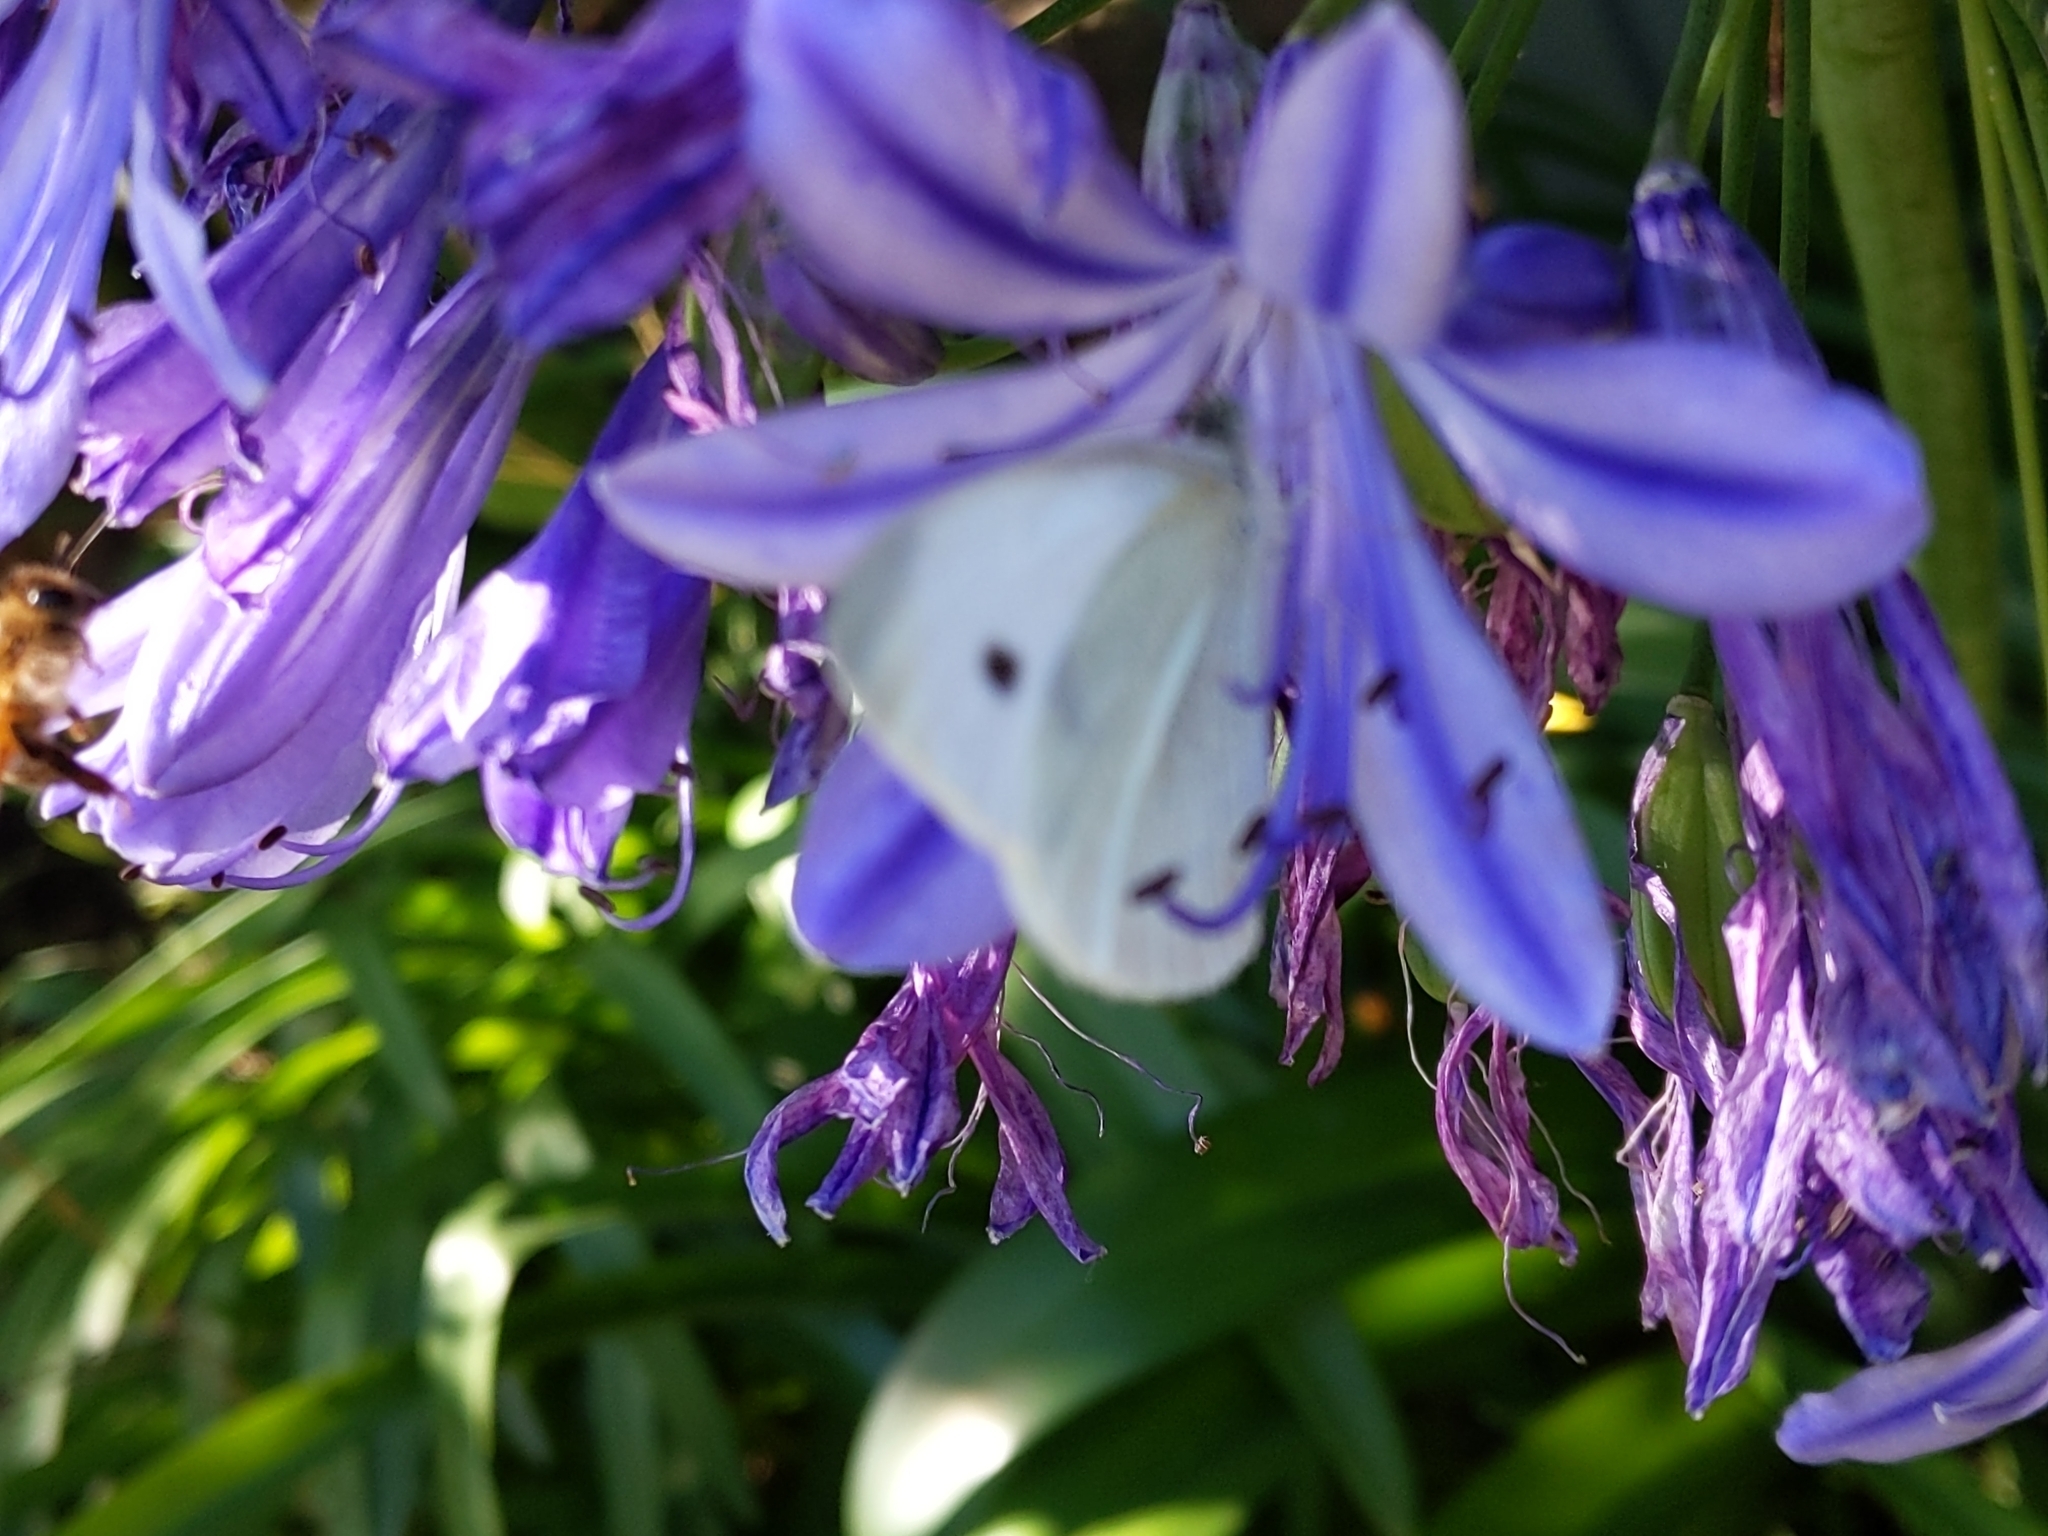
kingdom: Animalia
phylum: Arthropoda
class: Insecta
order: Lepidoptera
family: Pieridae
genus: Pieris
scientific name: Pieris rapae
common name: Small white
